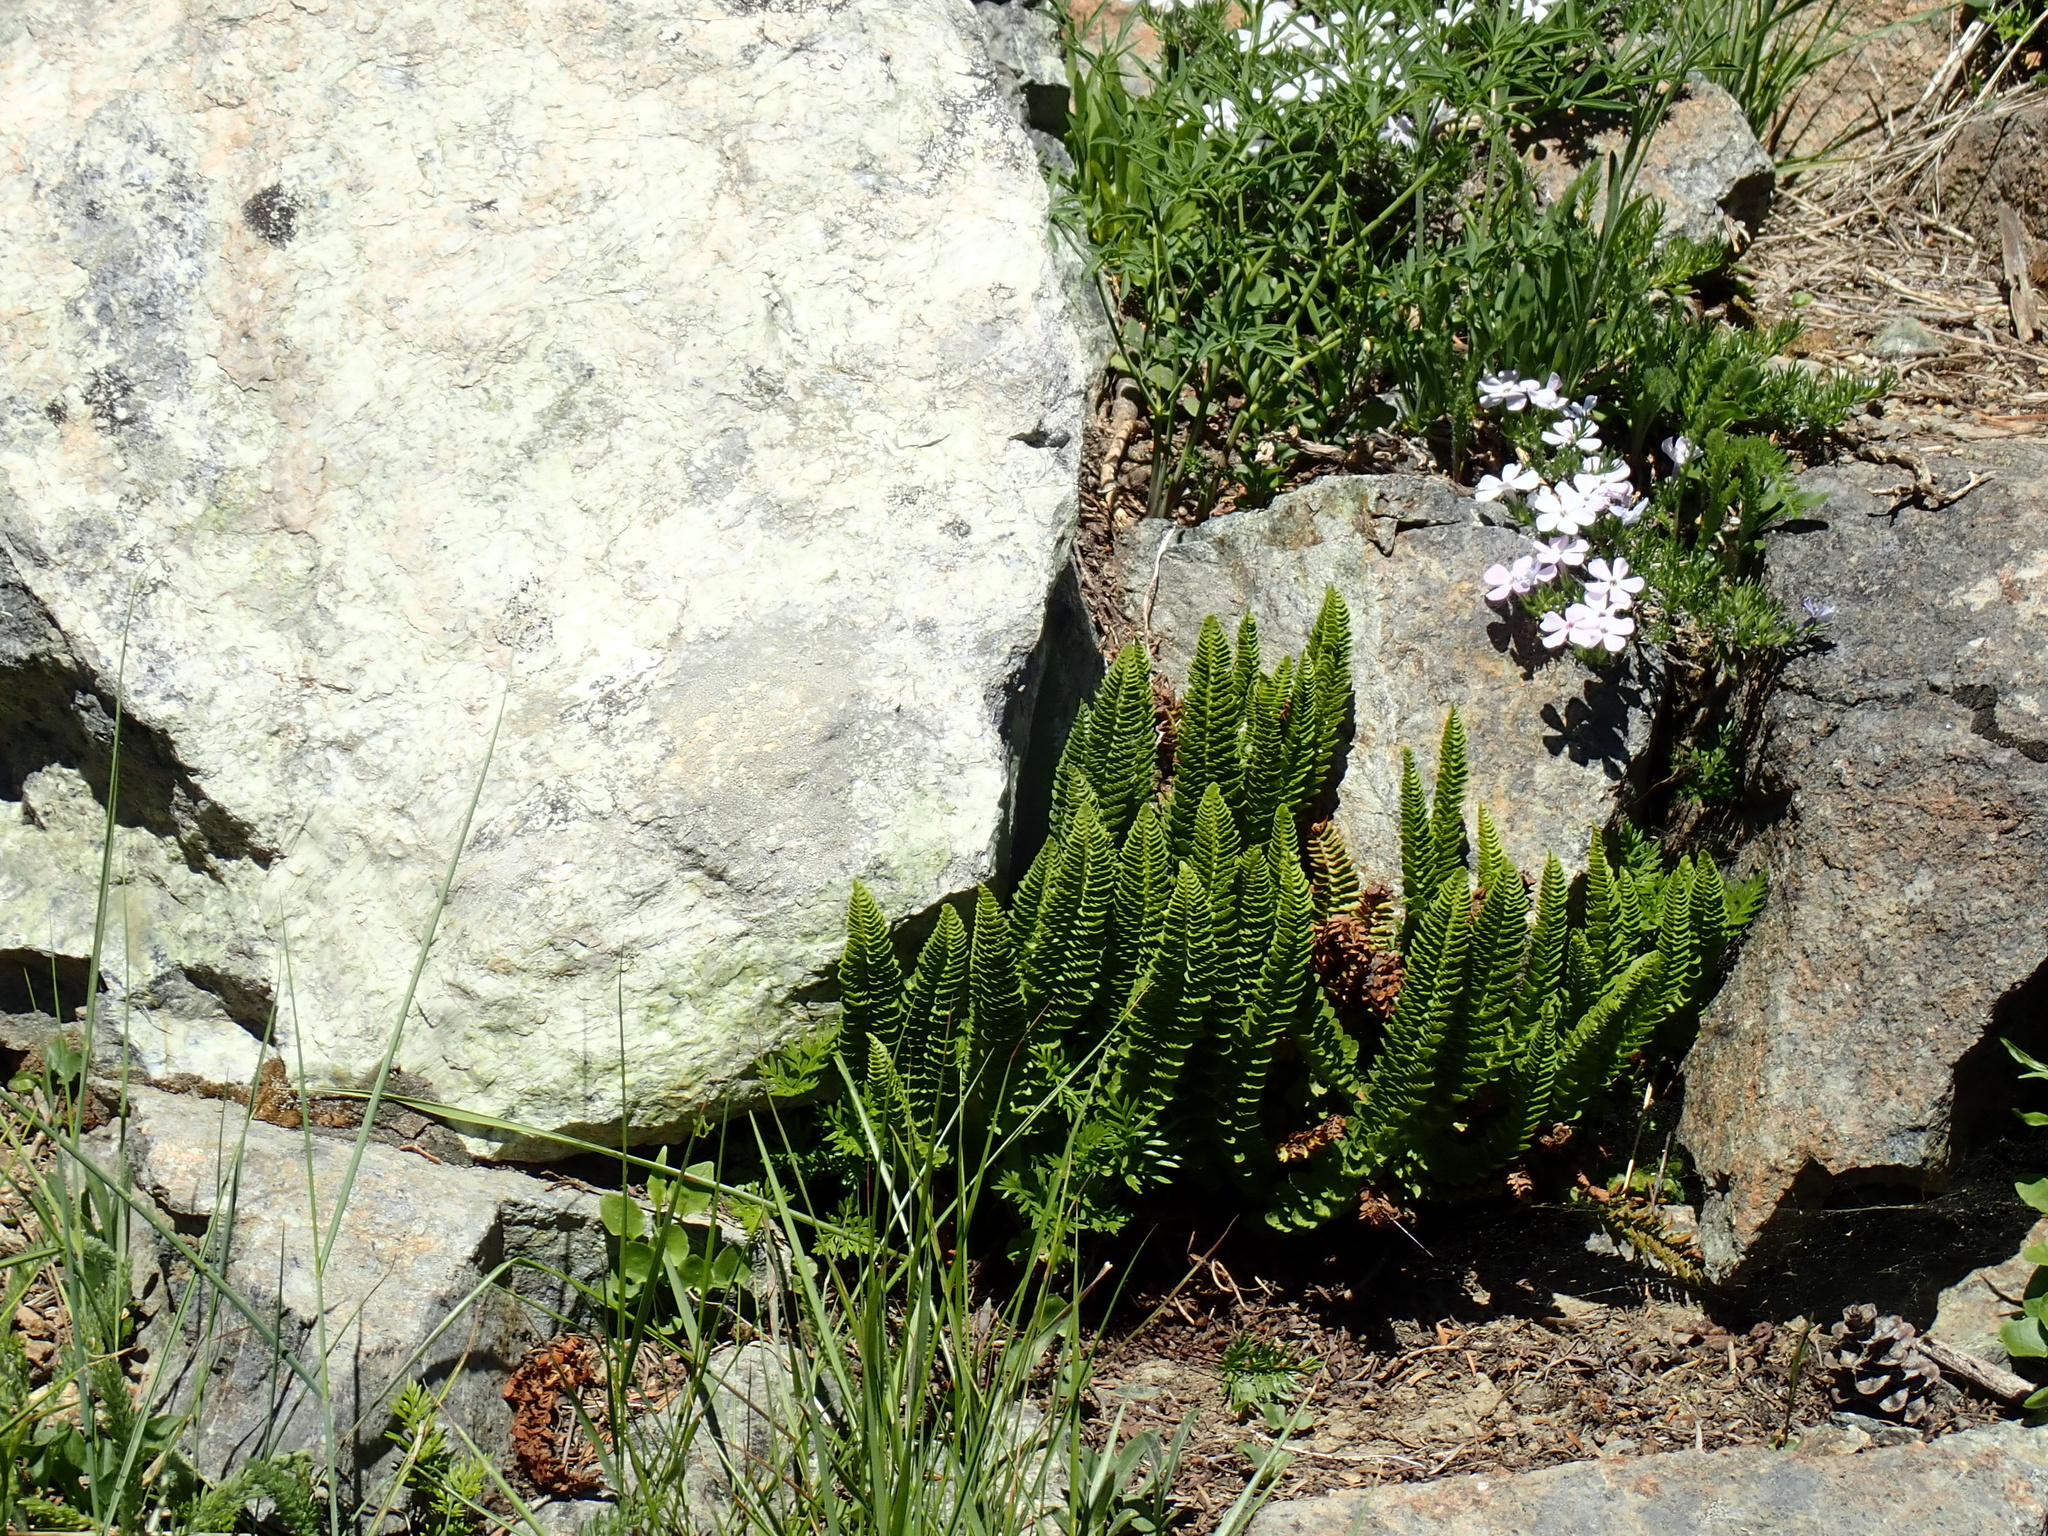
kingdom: Plantae
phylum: Tracheophyta
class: Polypodiopsida
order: Polypodiales
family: Dryopteridaceae
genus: Polystichum
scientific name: Polystichum lemmonii
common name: Lemmon's holly fern
